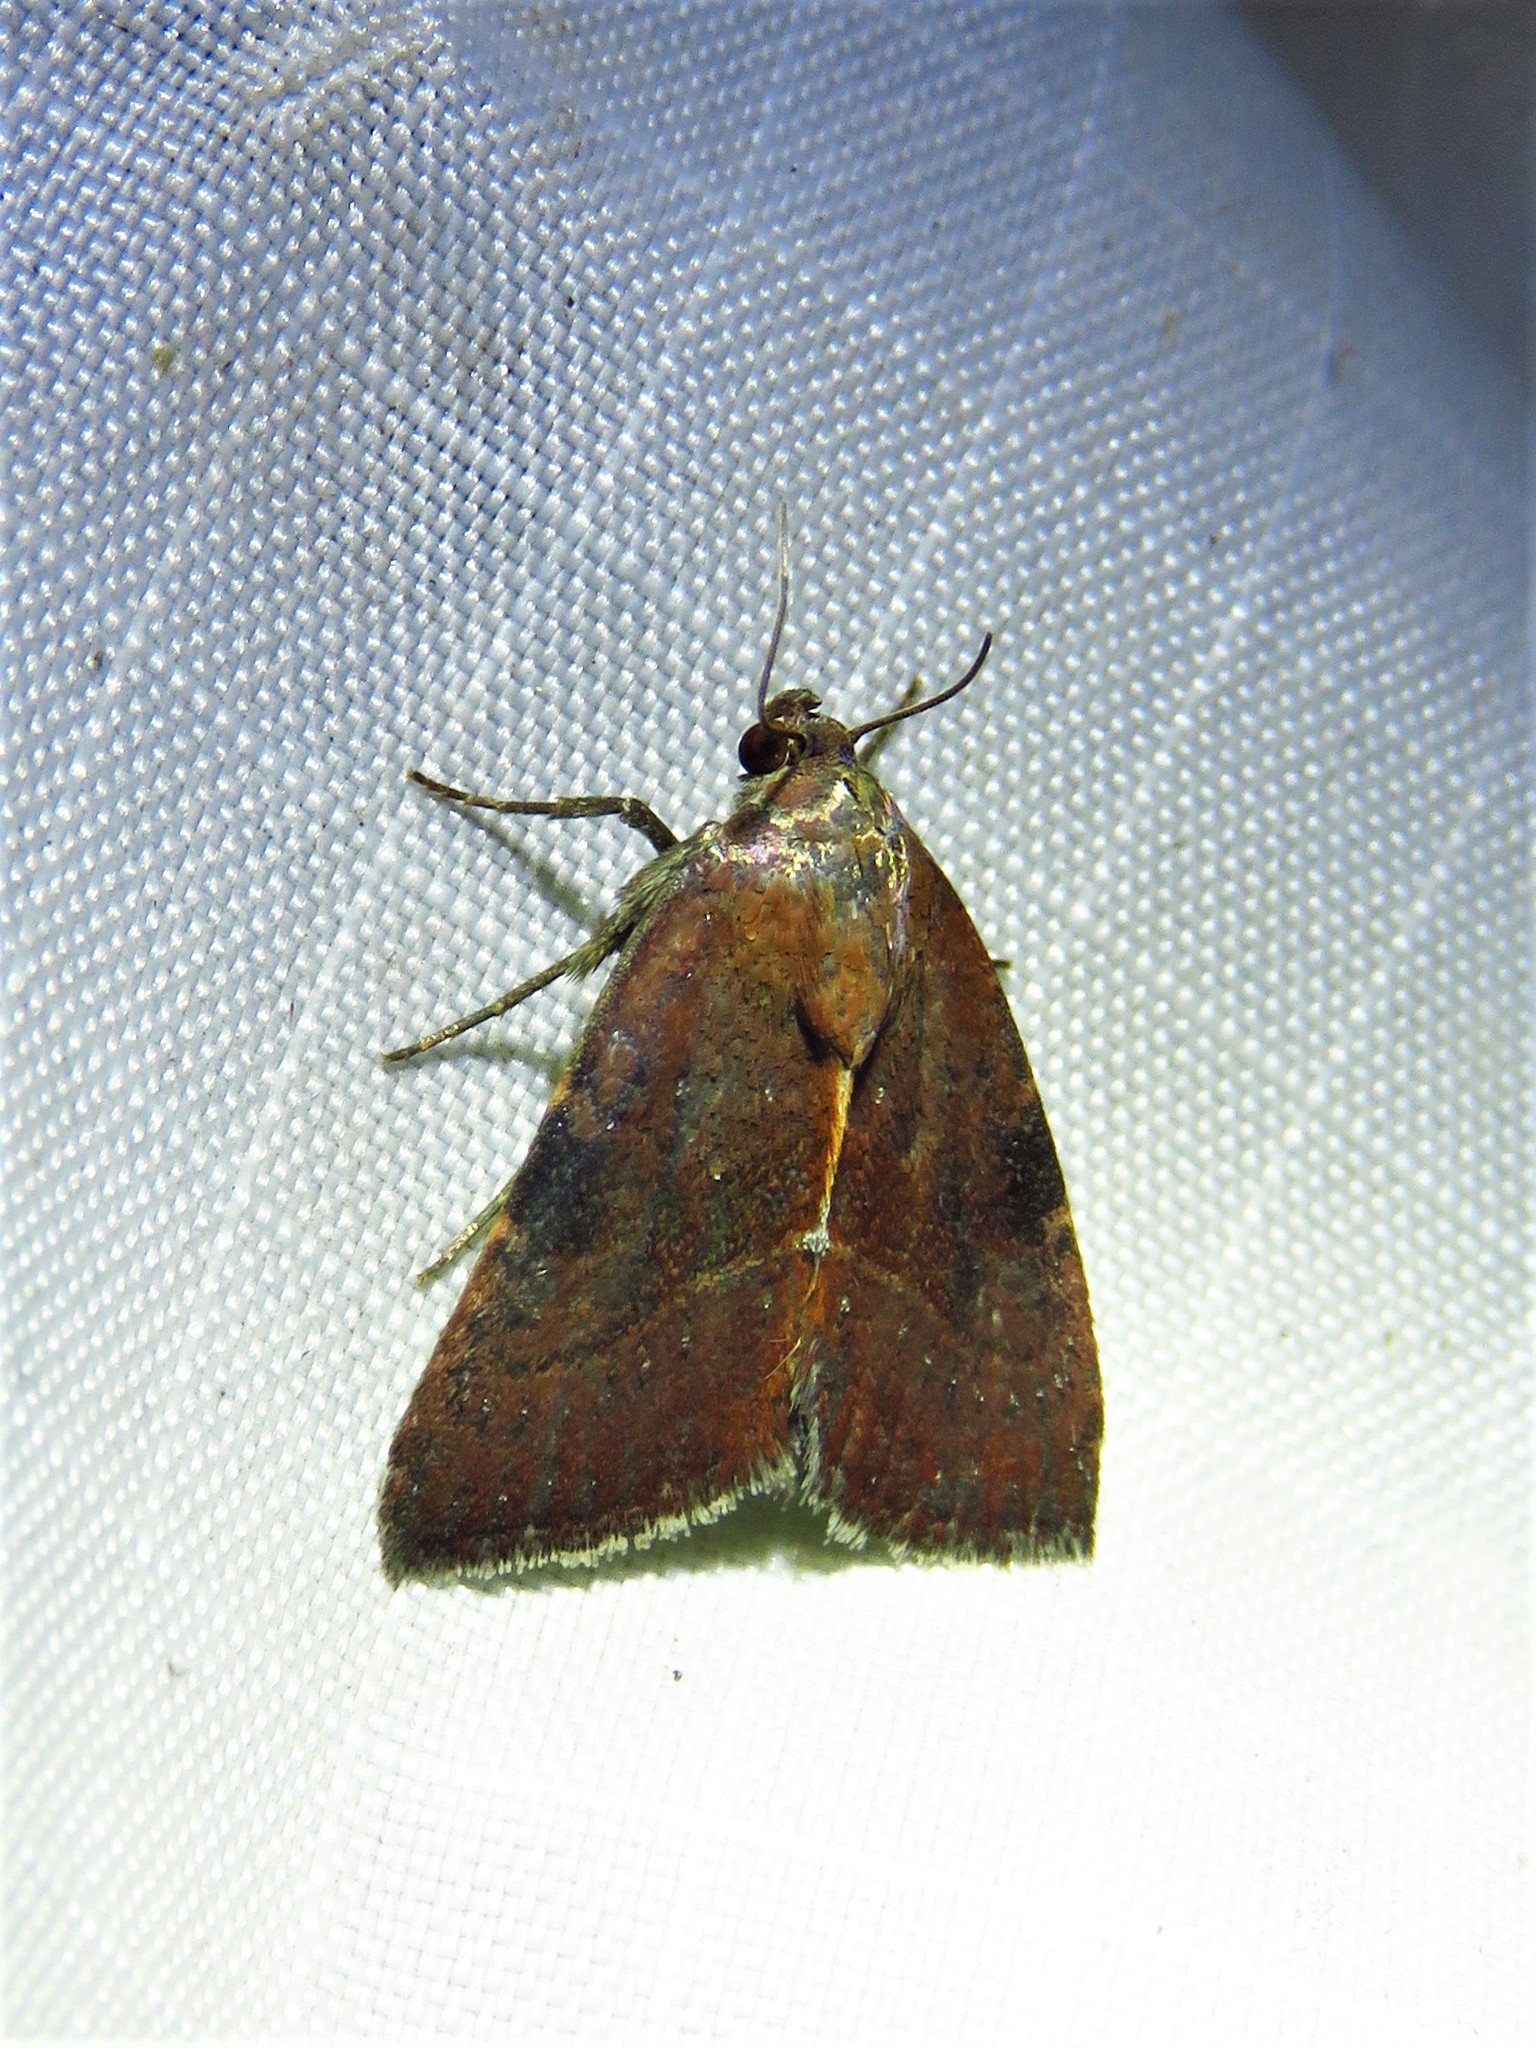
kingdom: Animalia
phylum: Arthropoda
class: Insecta
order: Lepidoptera
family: Noctuidae
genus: Galgula
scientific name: Galgula partita
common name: Wedgeling
